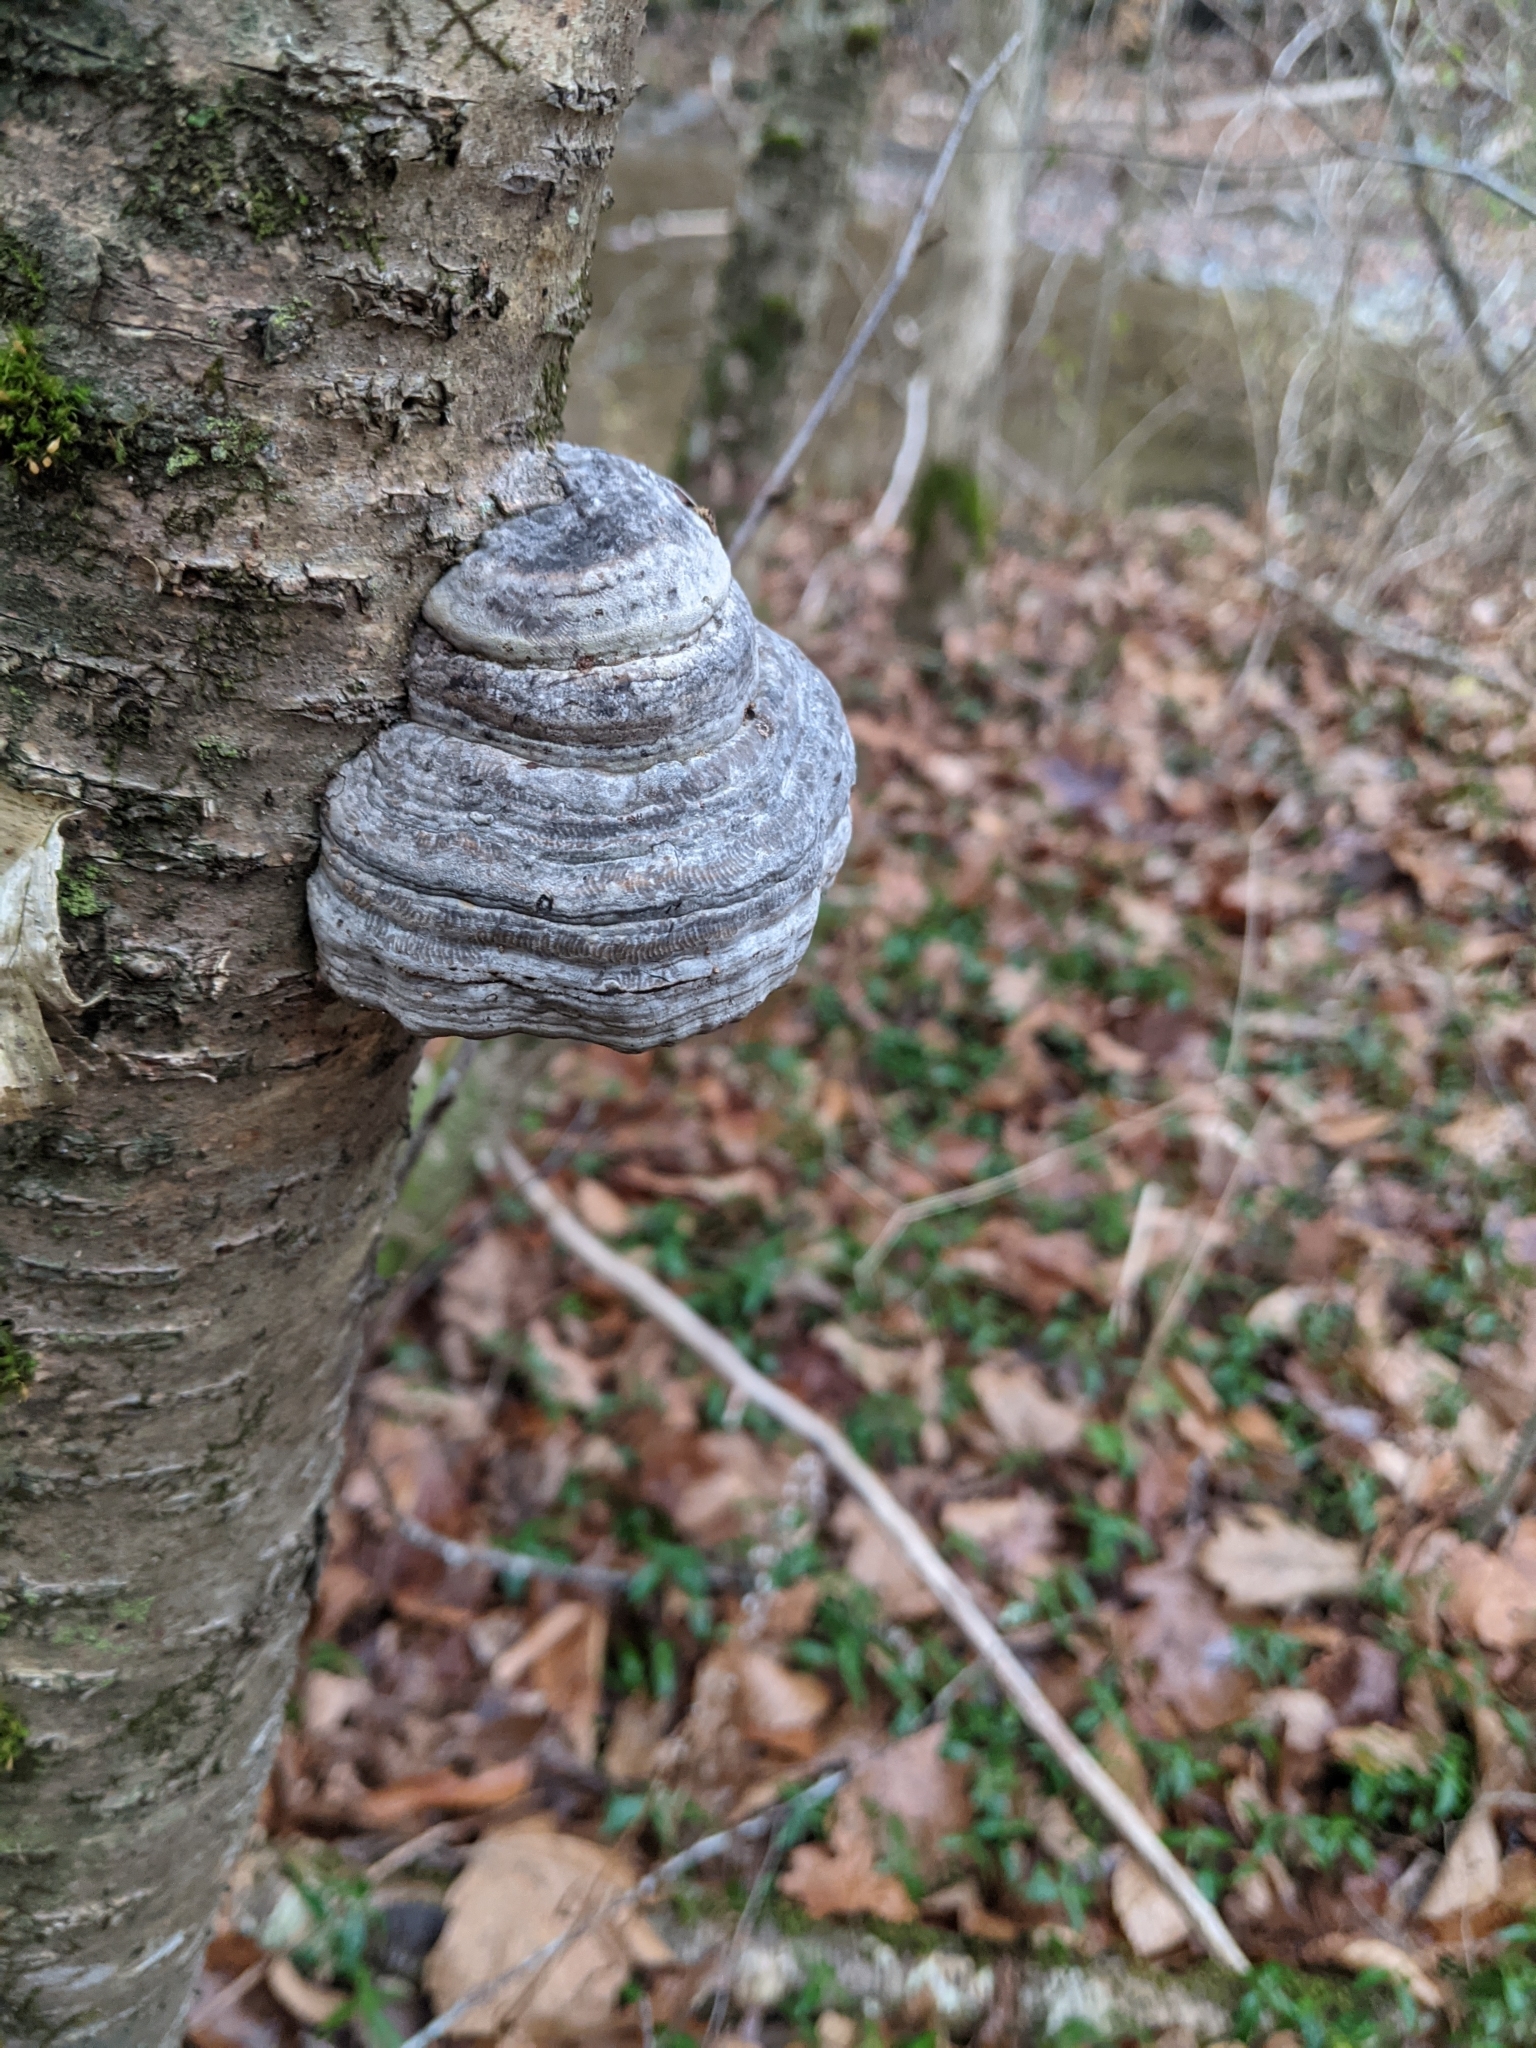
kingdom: Fungi
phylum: Basidiomycota
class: Agaricomycetes
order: Polyporales
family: Polyporaceae
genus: Fomes
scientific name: Fomes fomentarius
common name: Hoof fungus
